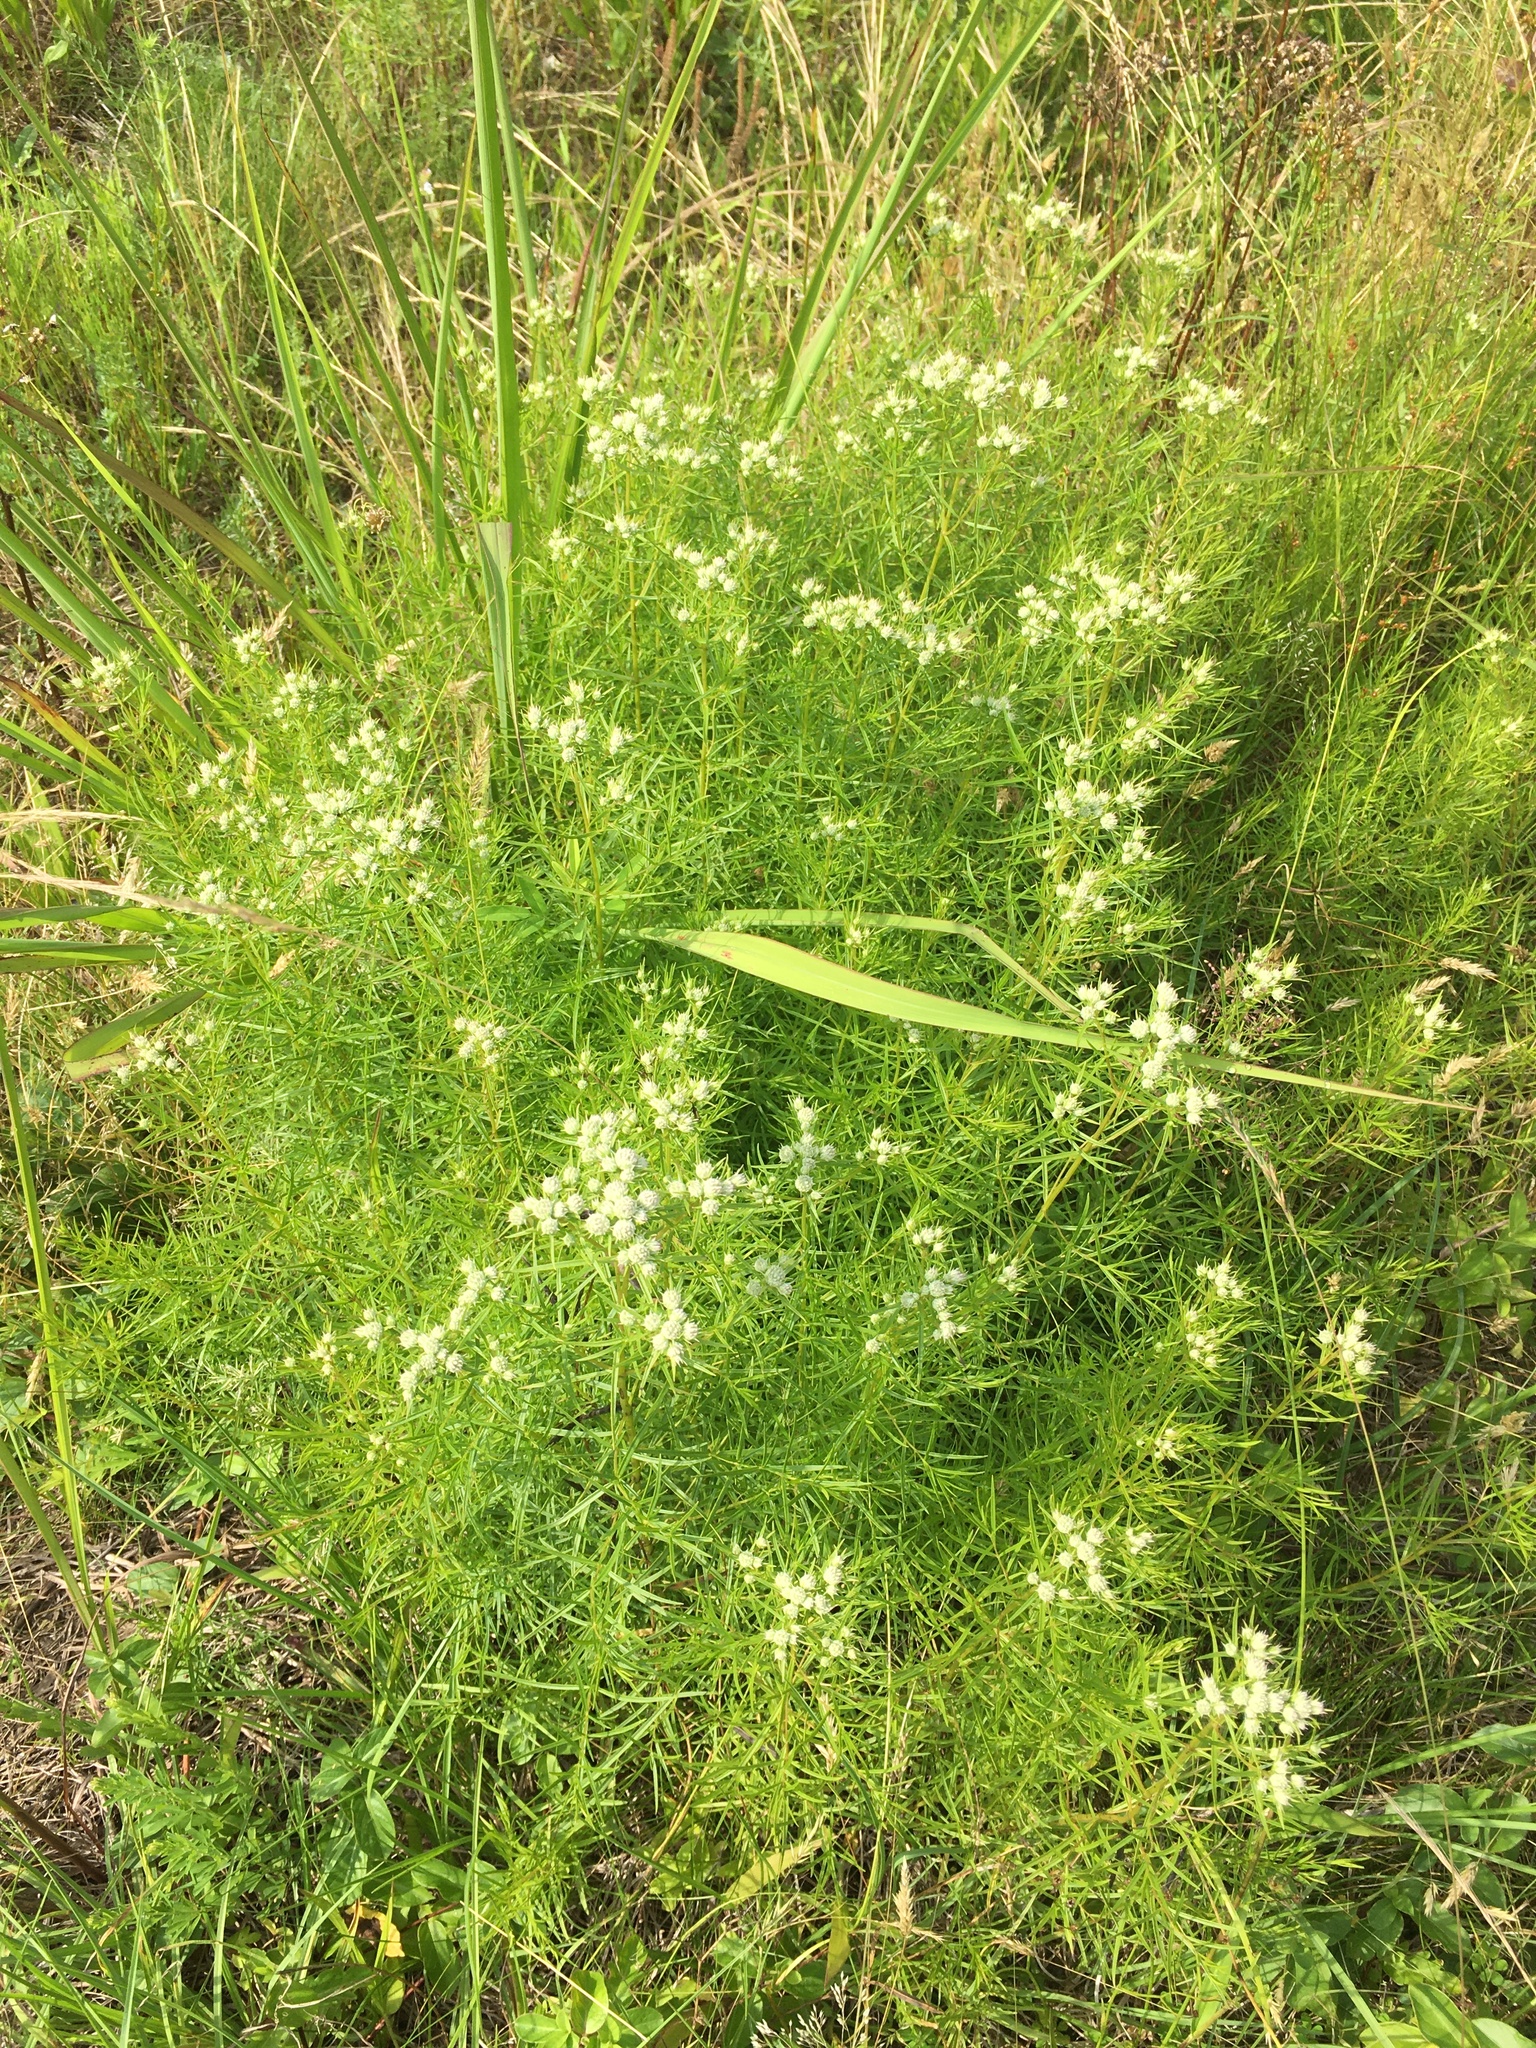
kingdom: Plantae
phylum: Tracheophyta
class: Magnoliopsida
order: Lamiales
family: Lamiaceae
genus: Pycnanthemum
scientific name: Pycnanthemum tenuifolium
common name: Narrow-leaf mountain-mint
